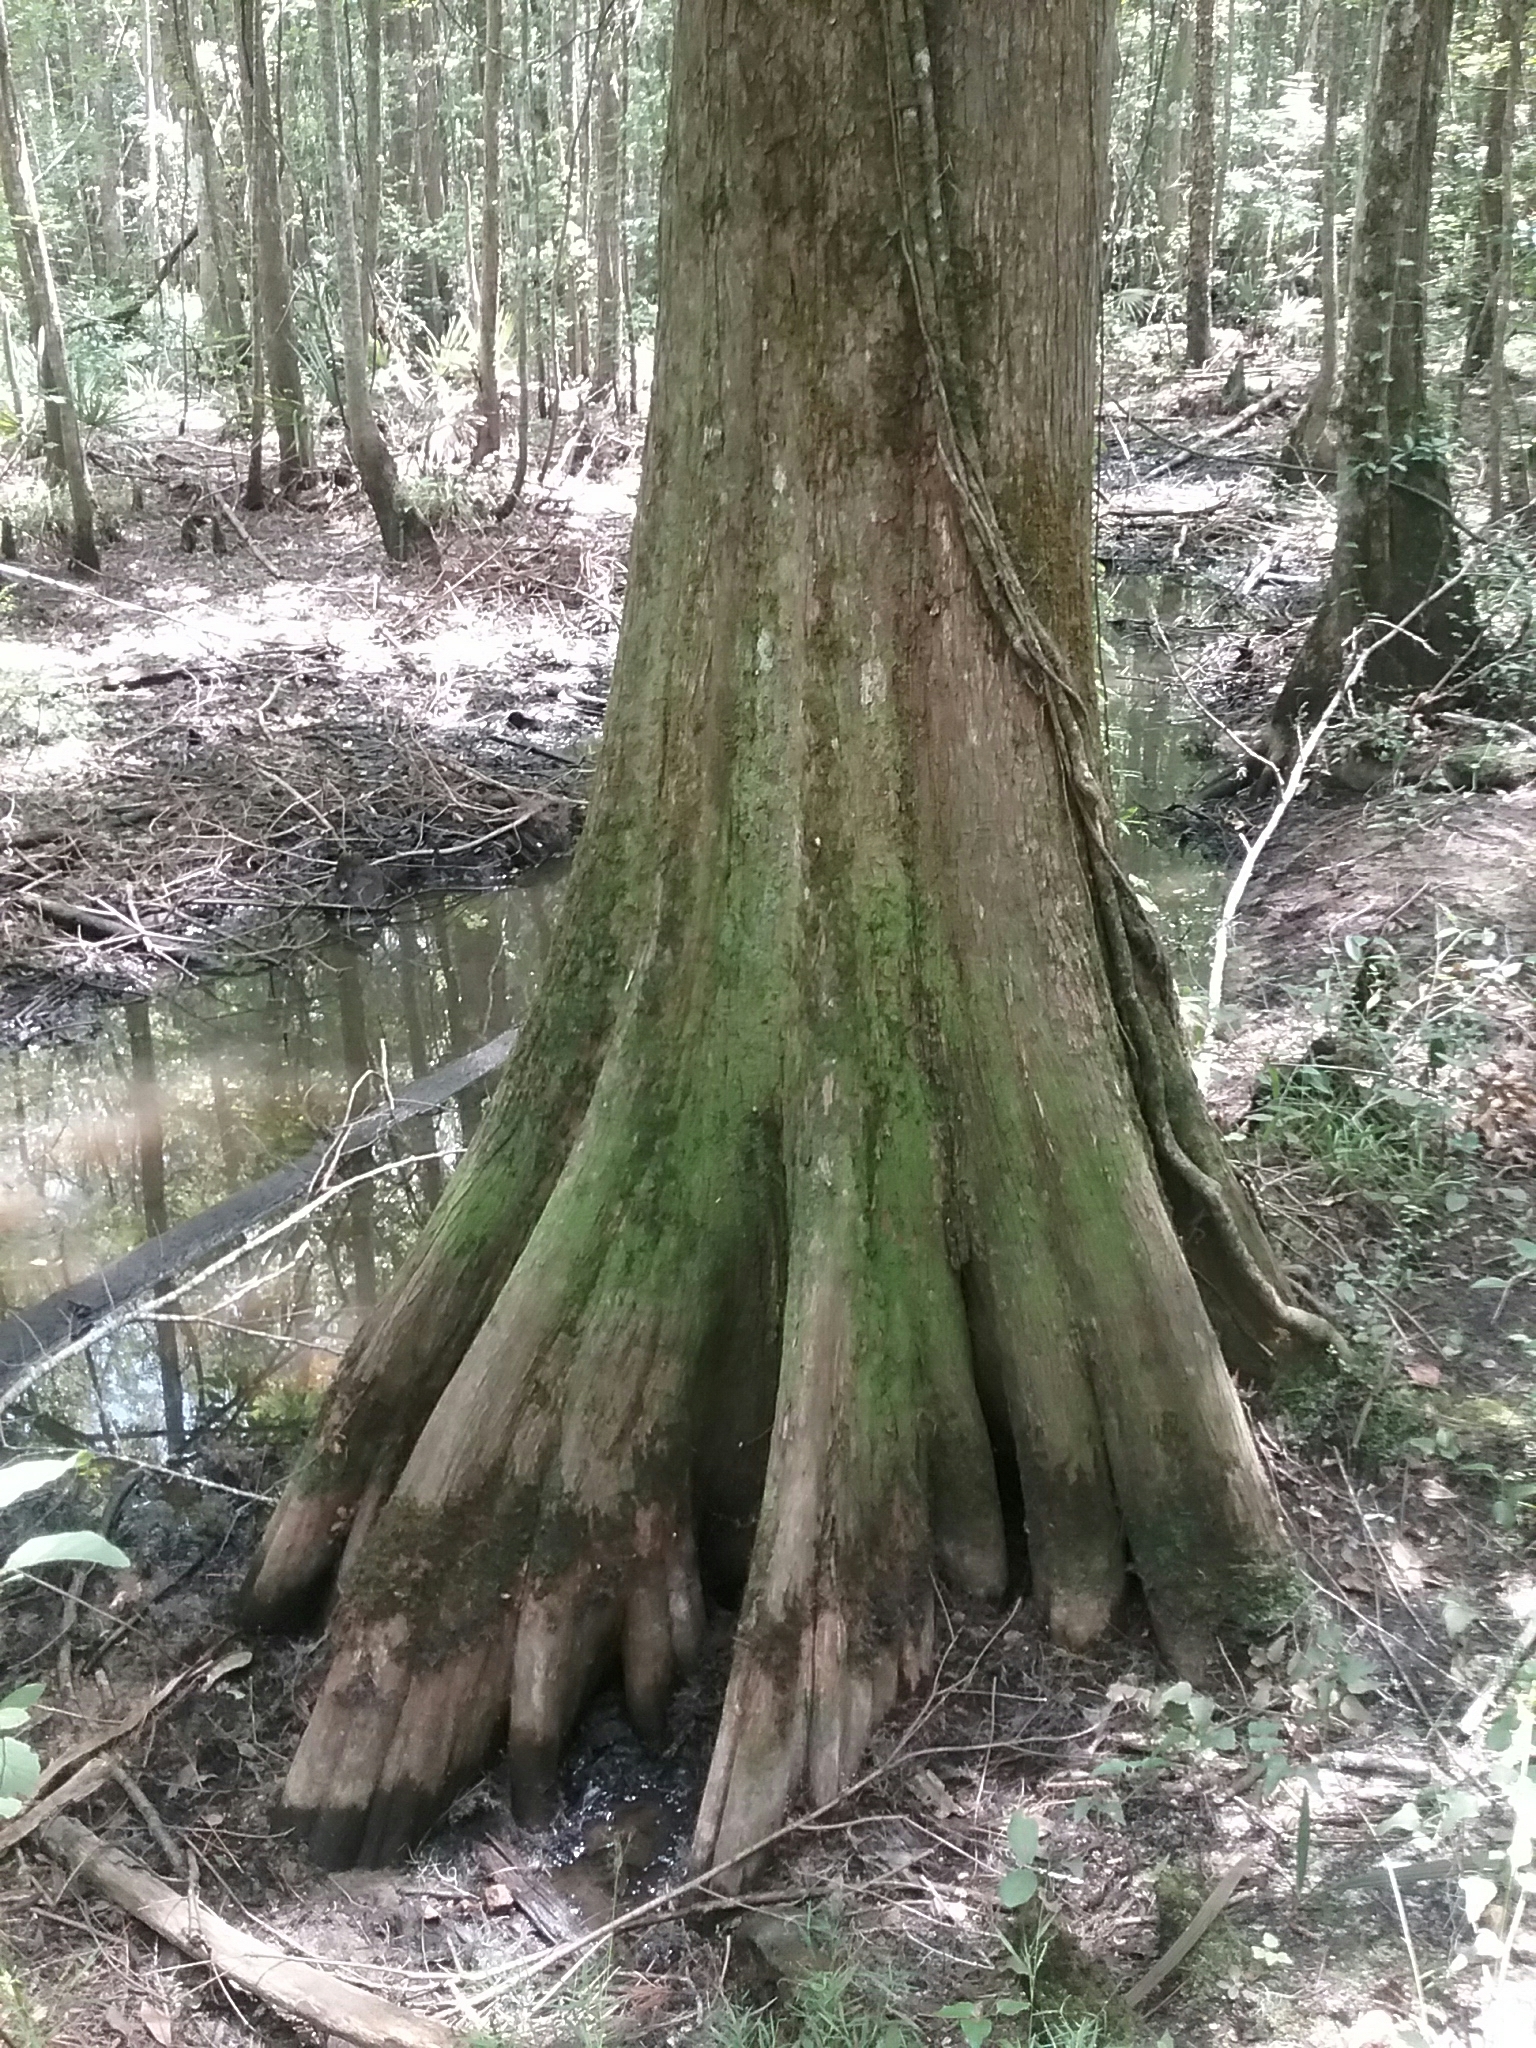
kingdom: Plantae
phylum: Tracheophyta
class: Pinopsida
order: Pinales
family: Cupressaceae
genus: Taxodium
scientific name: Taxodium distichum
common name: Bald cypress
